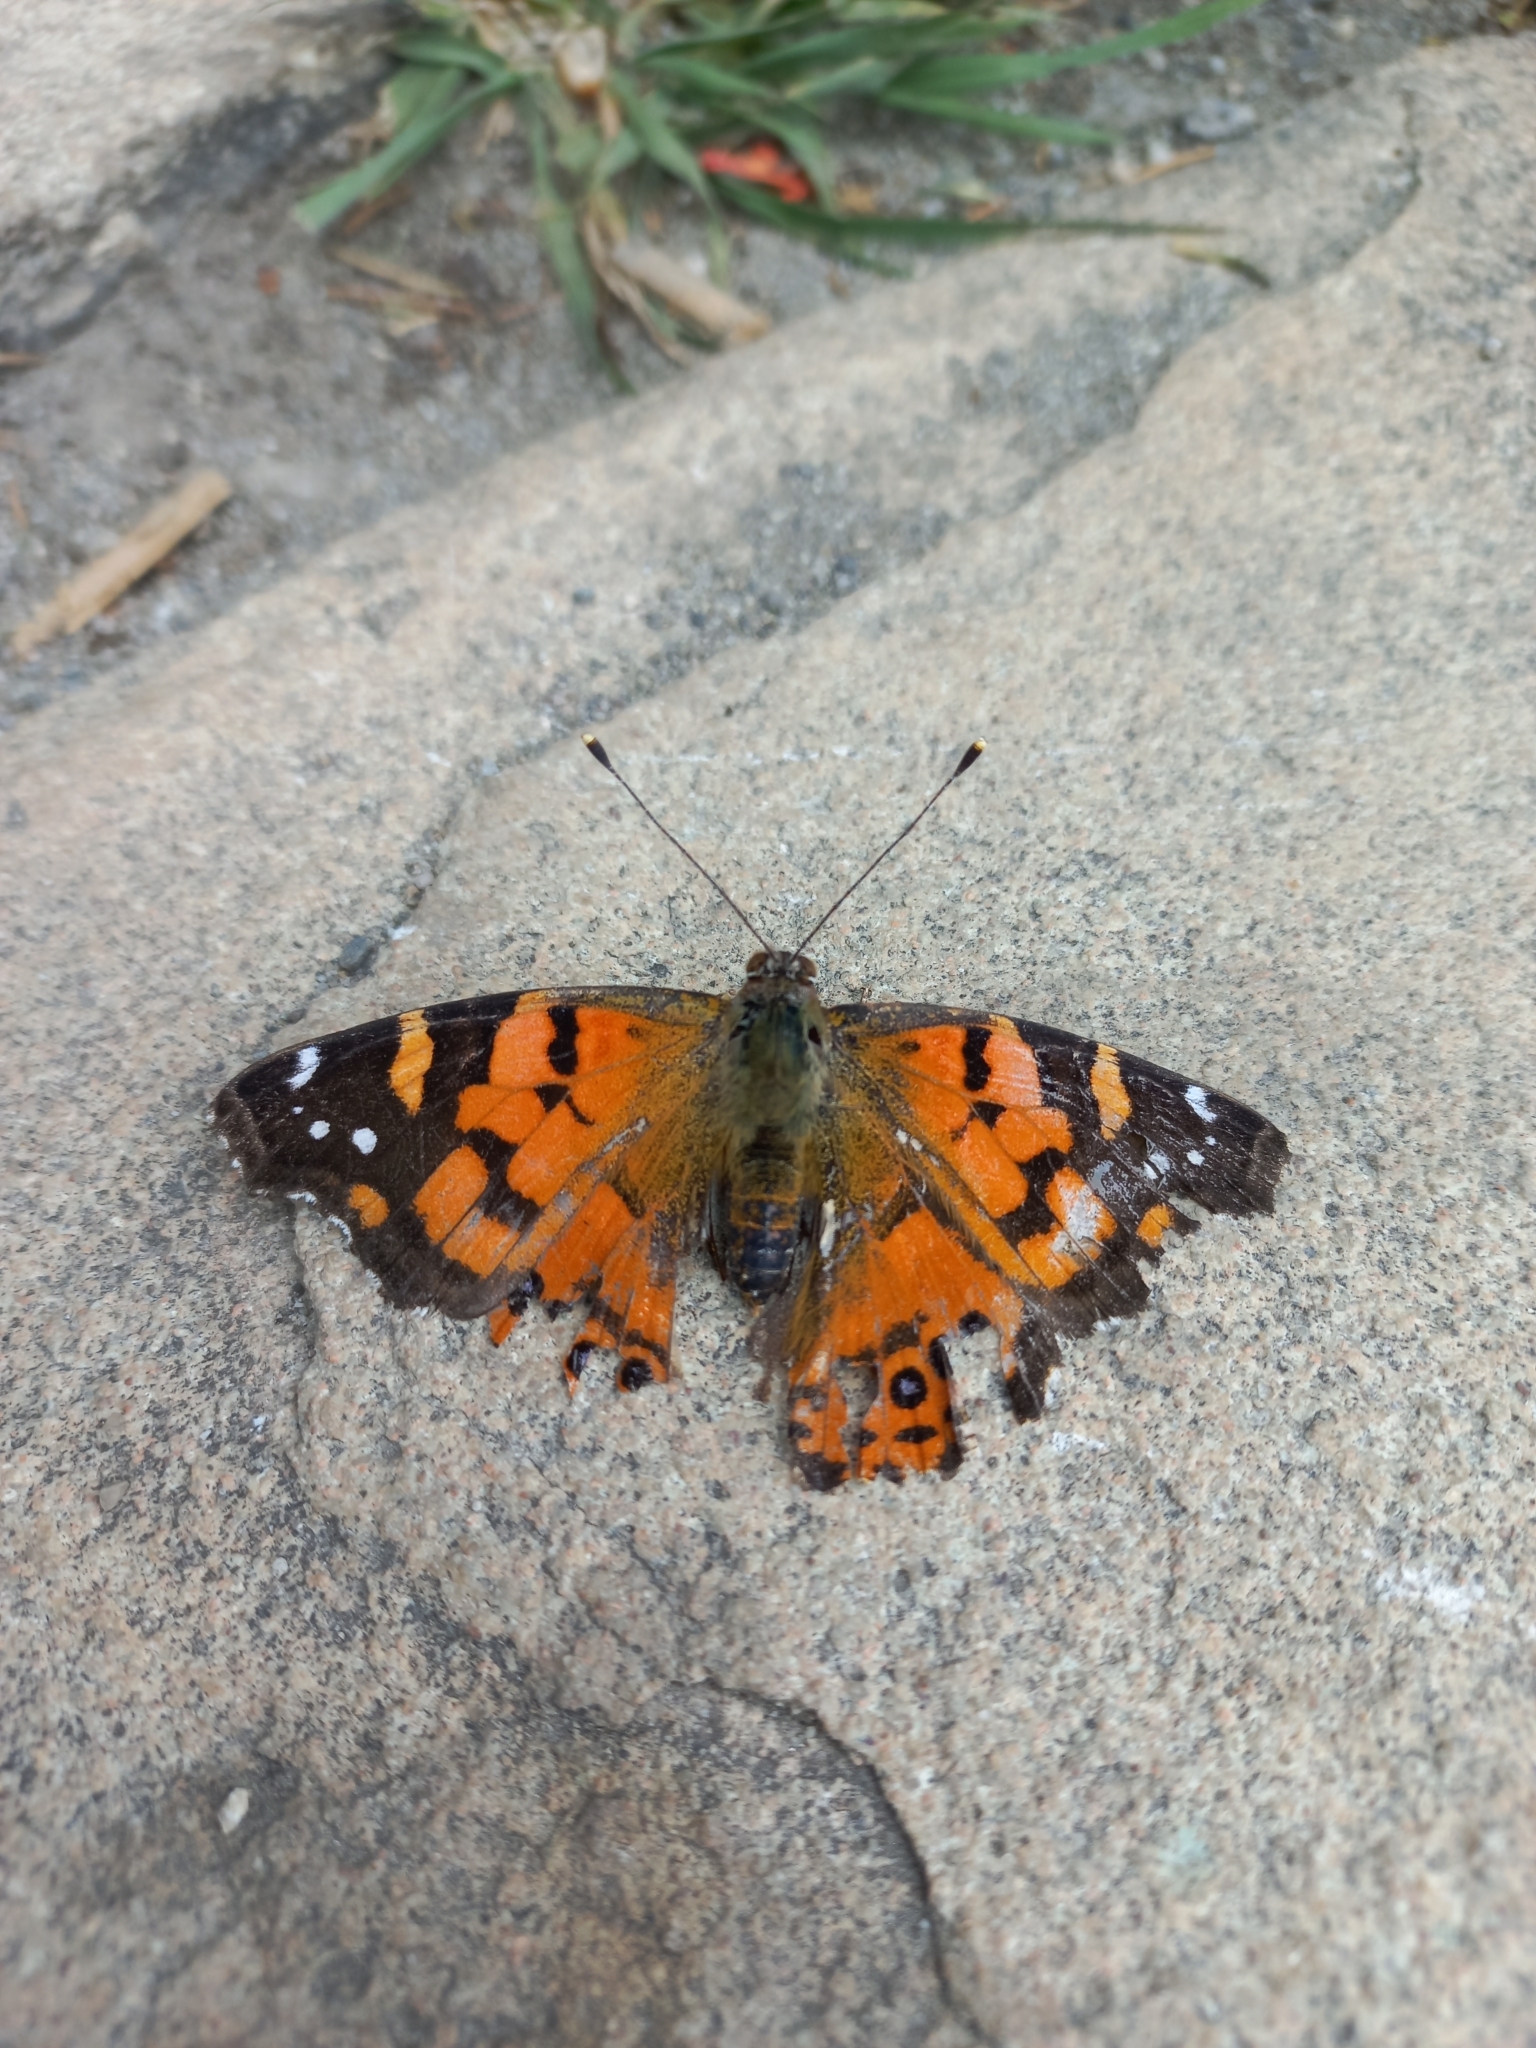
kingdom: Animalia
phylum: Arthropoda
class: Insecta
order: Lepidoptera
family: Nymphalidae
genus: Vanessa
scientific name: Vanessa carye
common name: Subtropical lady
